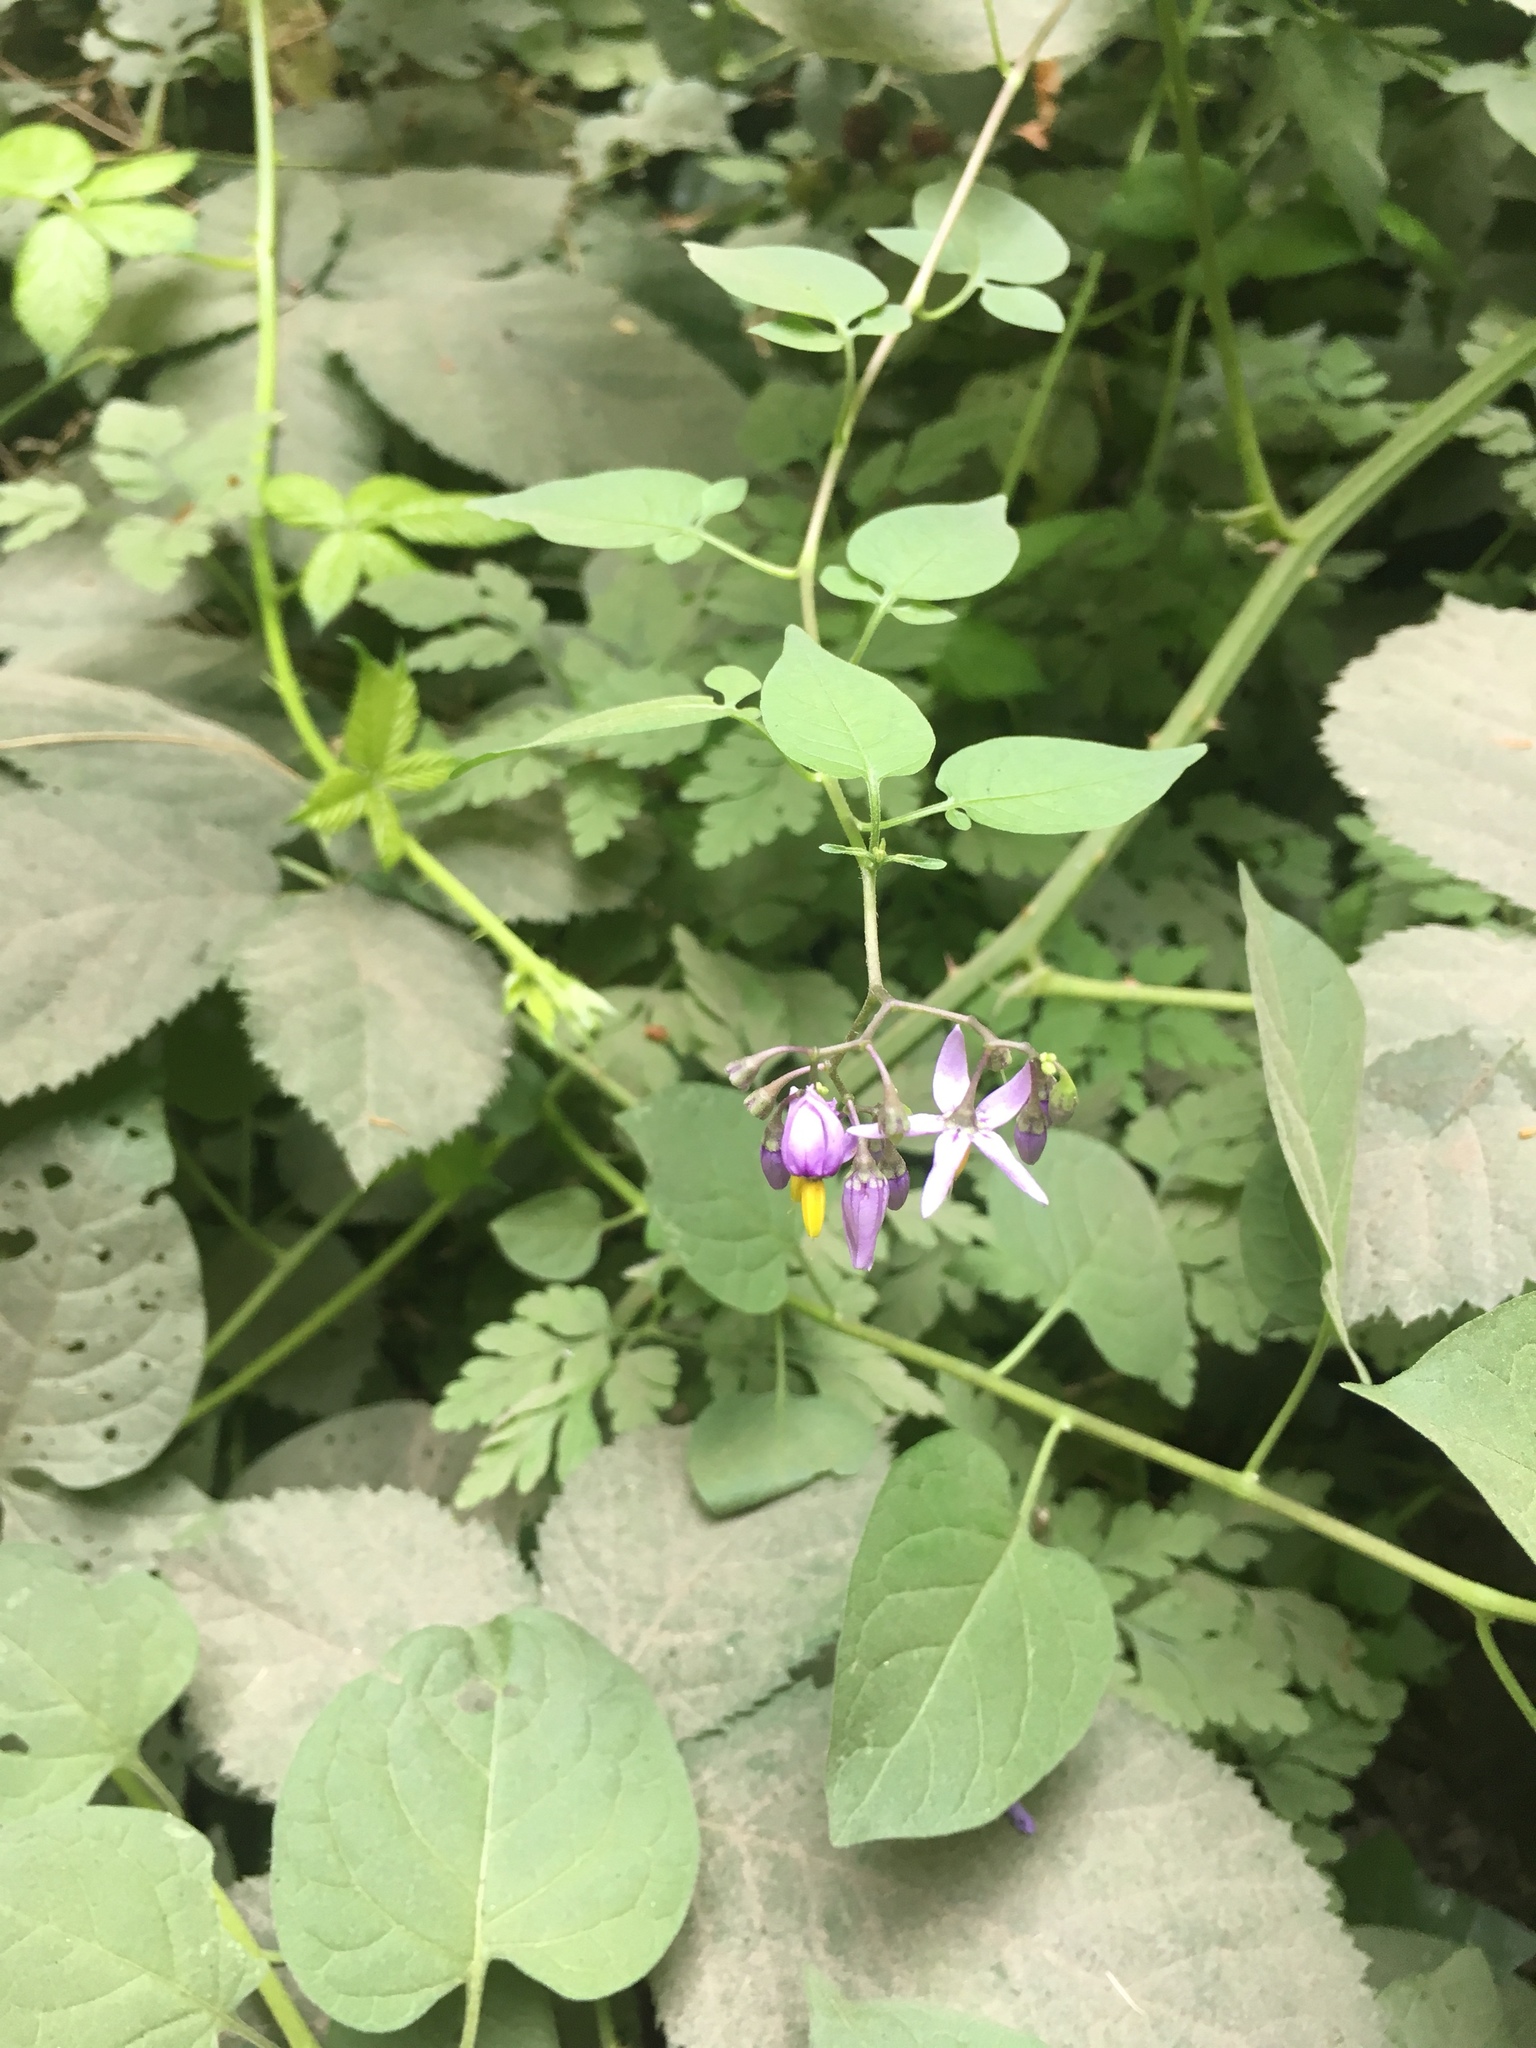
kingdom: Plantae
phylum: Tracheophyta
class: Magnoliopsida
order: Solanales
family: Solanaceae
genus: Solanum
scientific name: Solanum dulcamara
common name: Climbing nightshade
